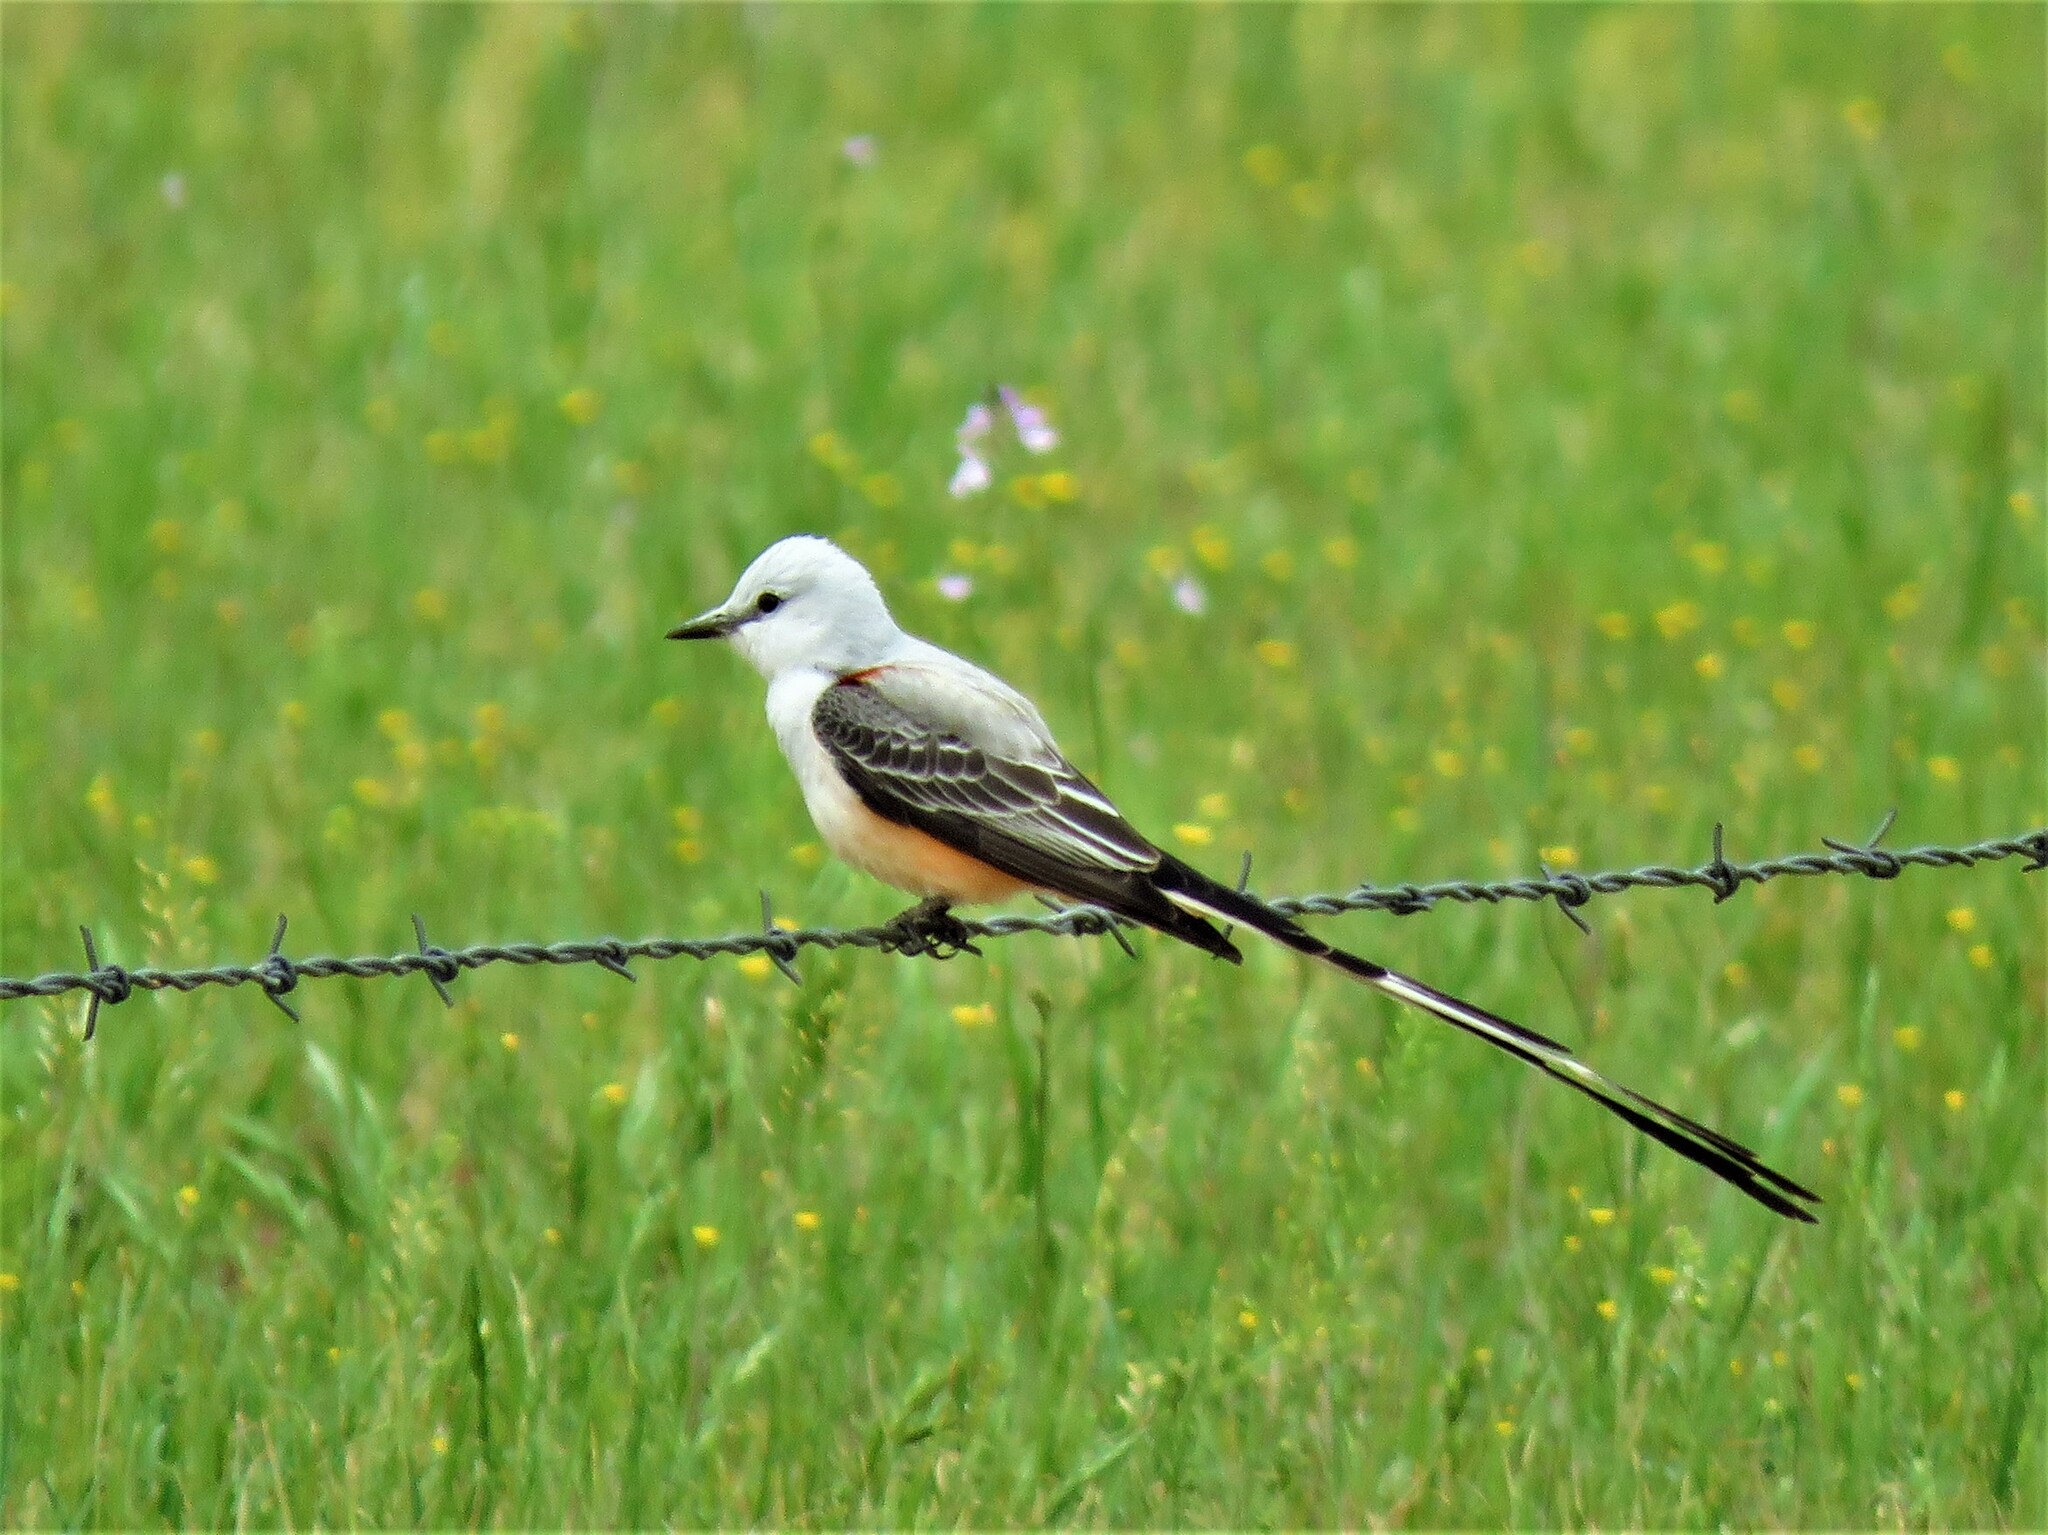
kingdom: Animalia
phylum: Chordata
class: Aves
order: Passeriformes
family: Tyrannidae
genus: Tyrannus
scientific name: Tyrannus forficatus
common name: Scissor-tailed flycatcher
